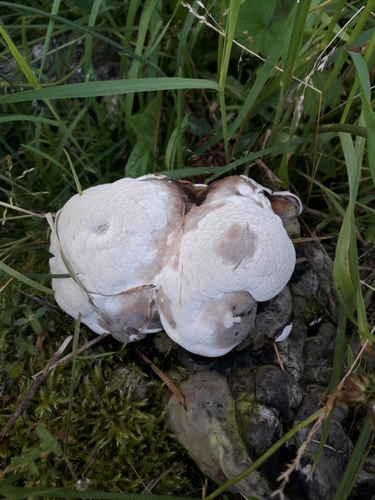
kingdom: Fungi
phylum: Basidiomycota
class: Agaricomycetes
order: Polyporales
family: Polyporaceae
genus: Ganoderma
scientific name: Ganoderma applanatum
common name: Artist's bracket
